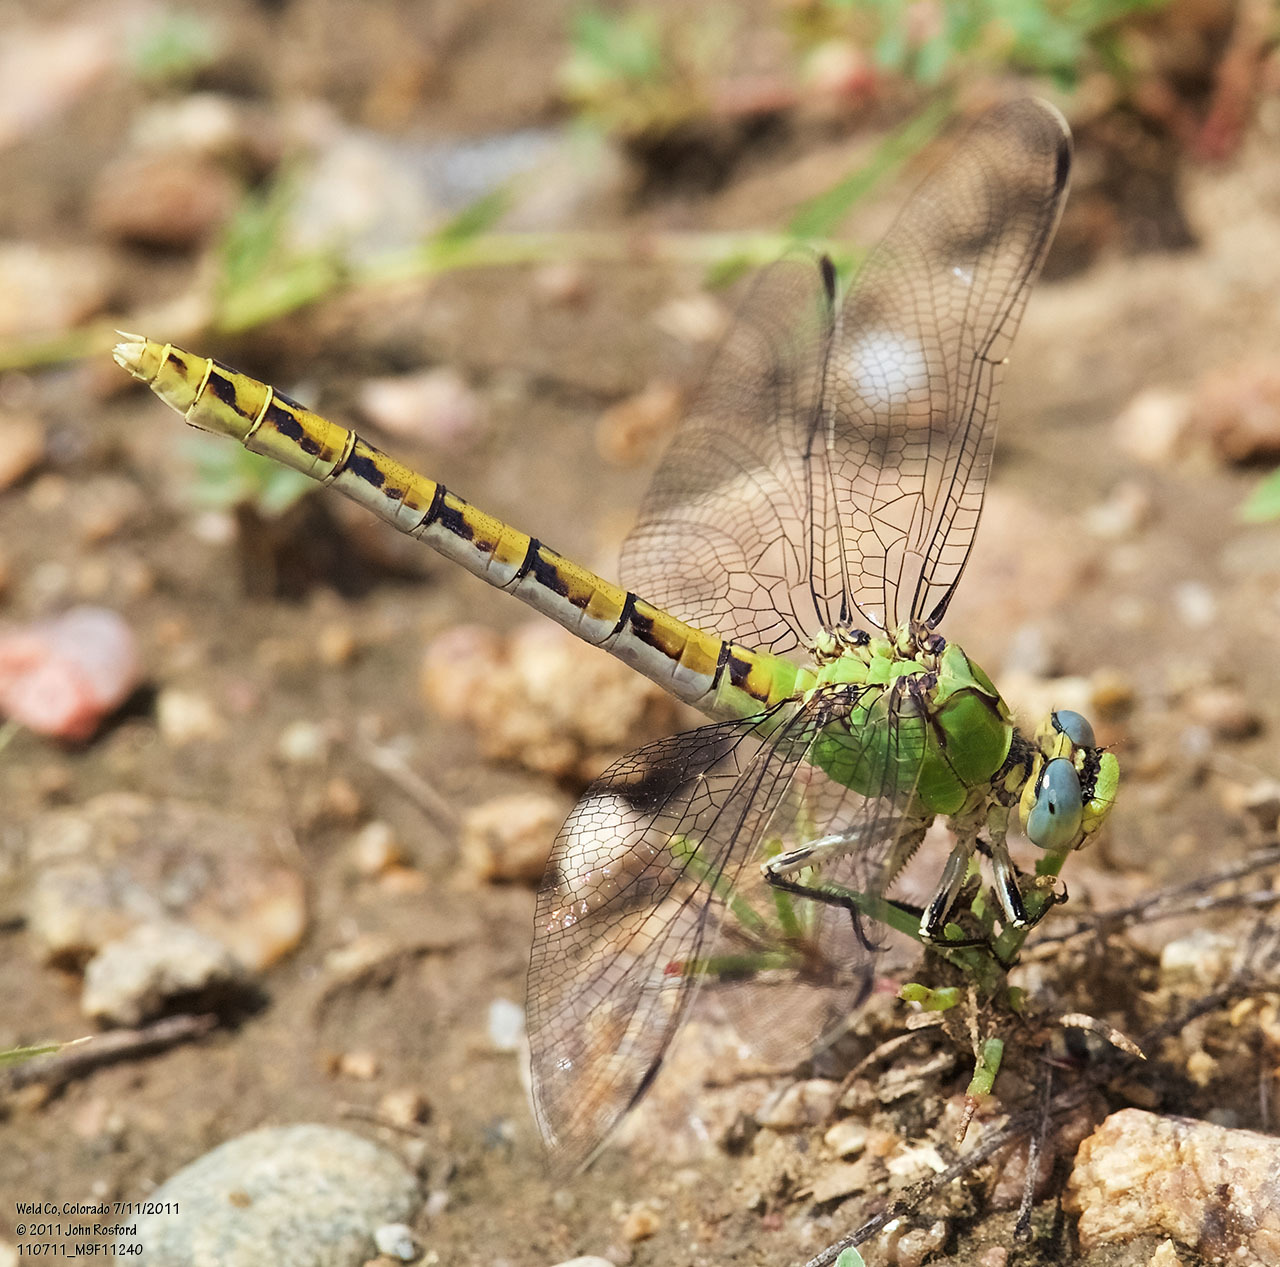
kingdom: Animalia
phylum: Arthropoda
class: Insecta
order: Odonata
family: Gomphidae
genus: Ophiogomphus
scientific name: Ophiogomphus severus
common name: Pale snaketail
